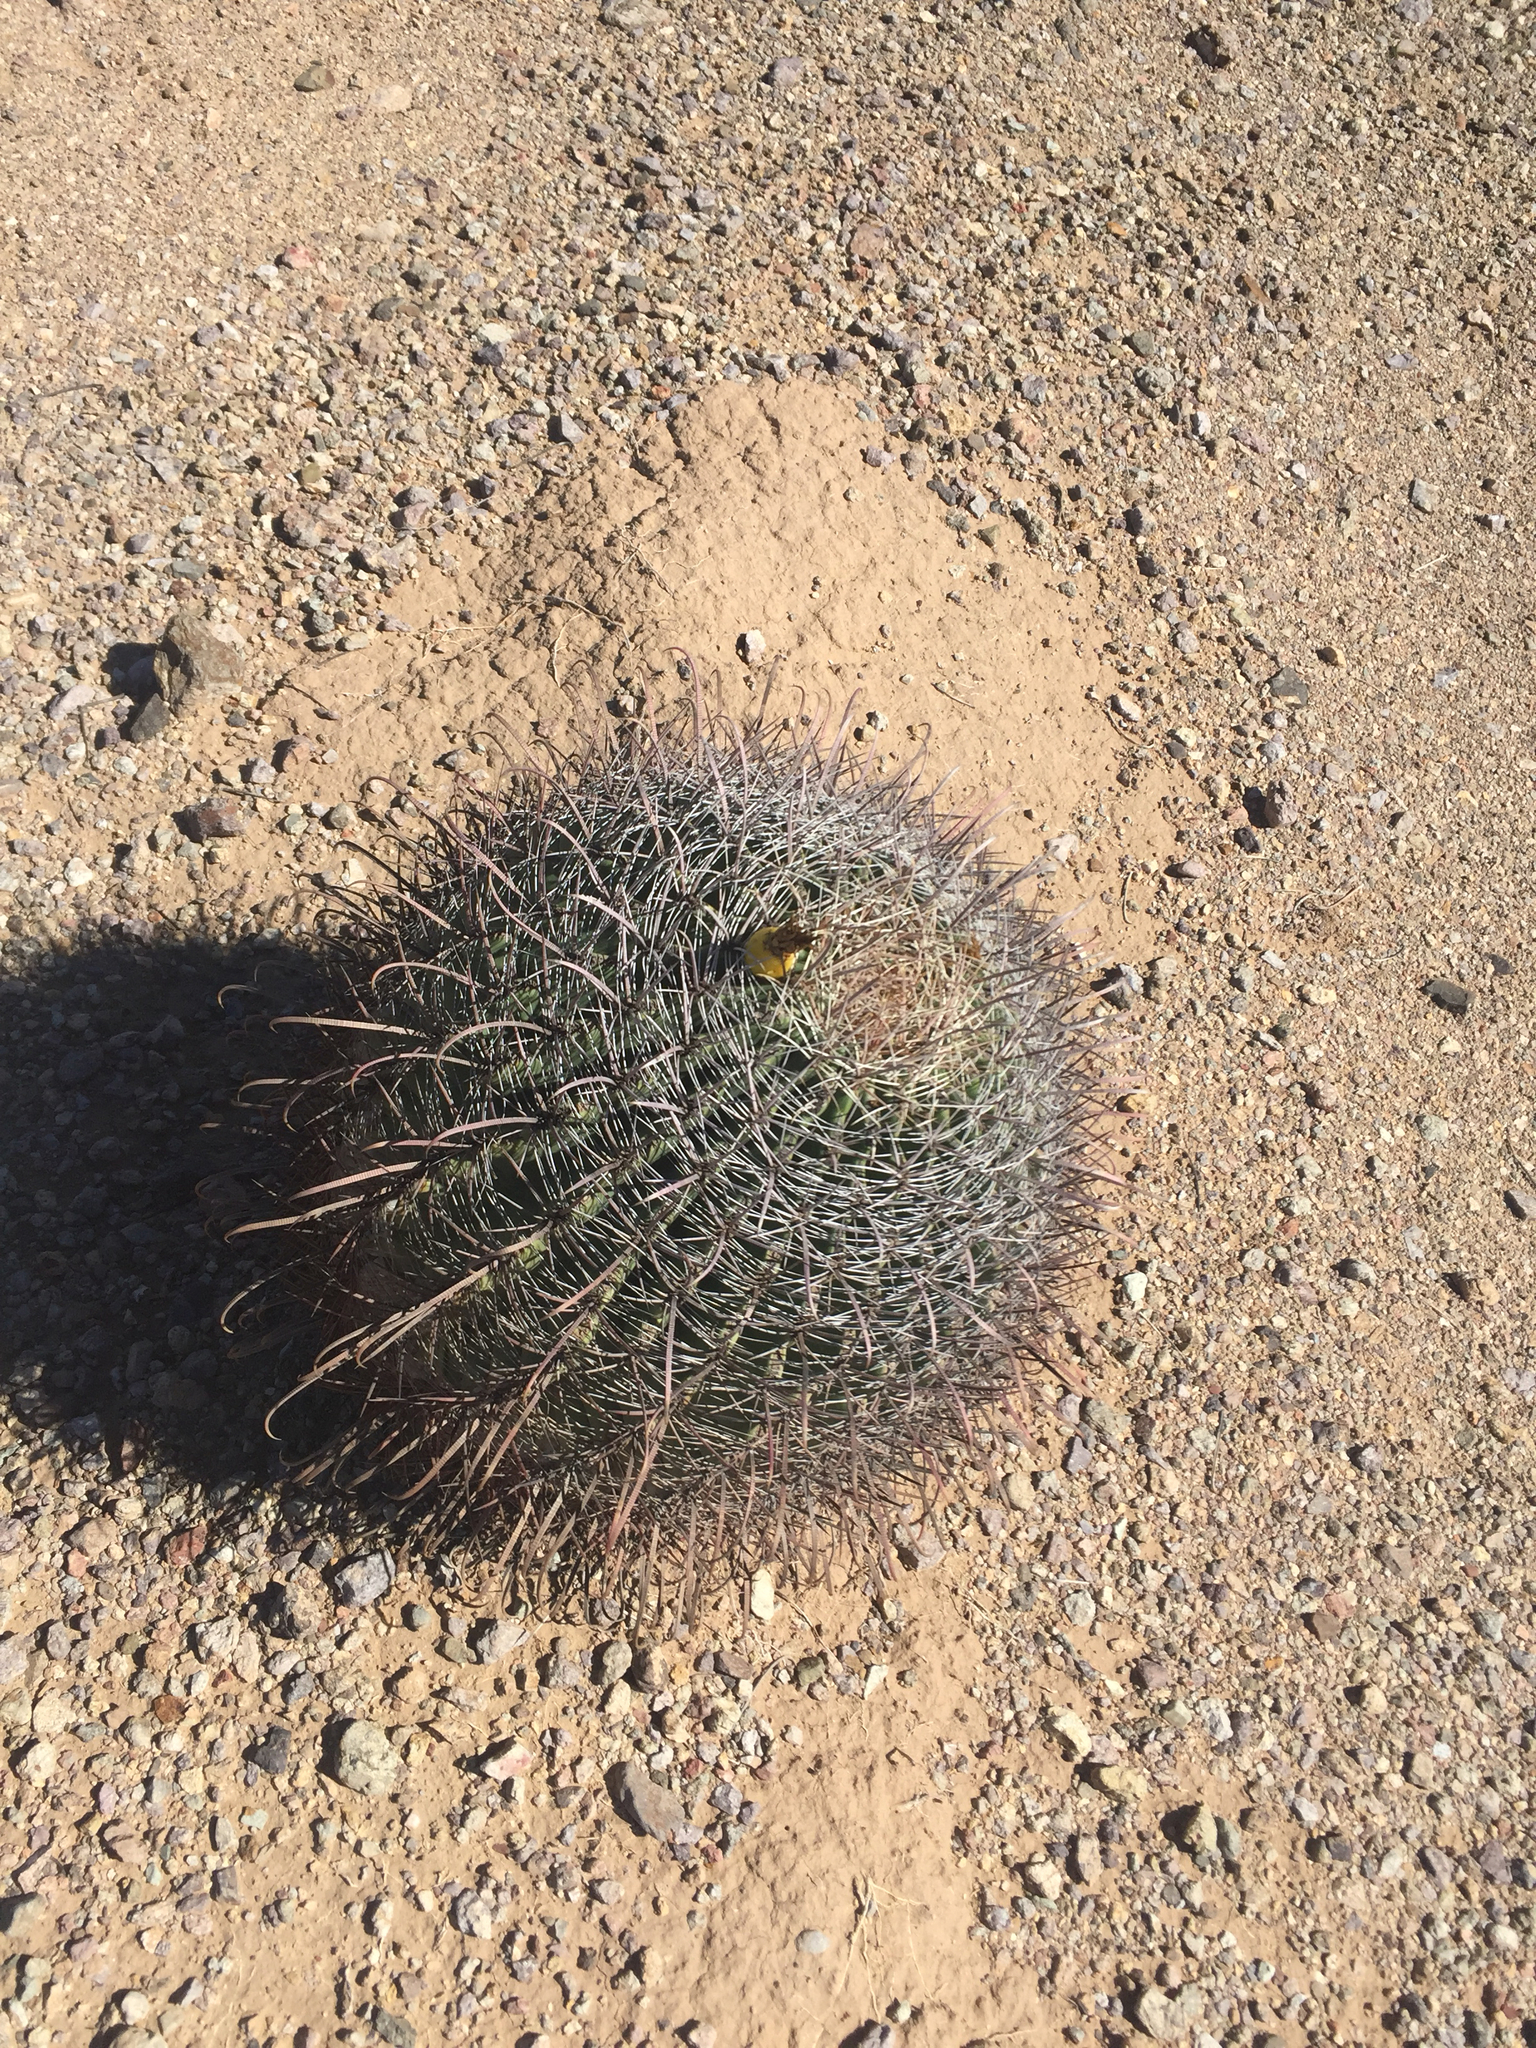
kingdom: Plantae
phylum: Tracheophyta
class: Magnoliopsida
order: Caryophyllales
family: Cactaceae
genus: Ferocactus
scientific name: Ferocactus wislizeni
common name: Candy barrel cactus
